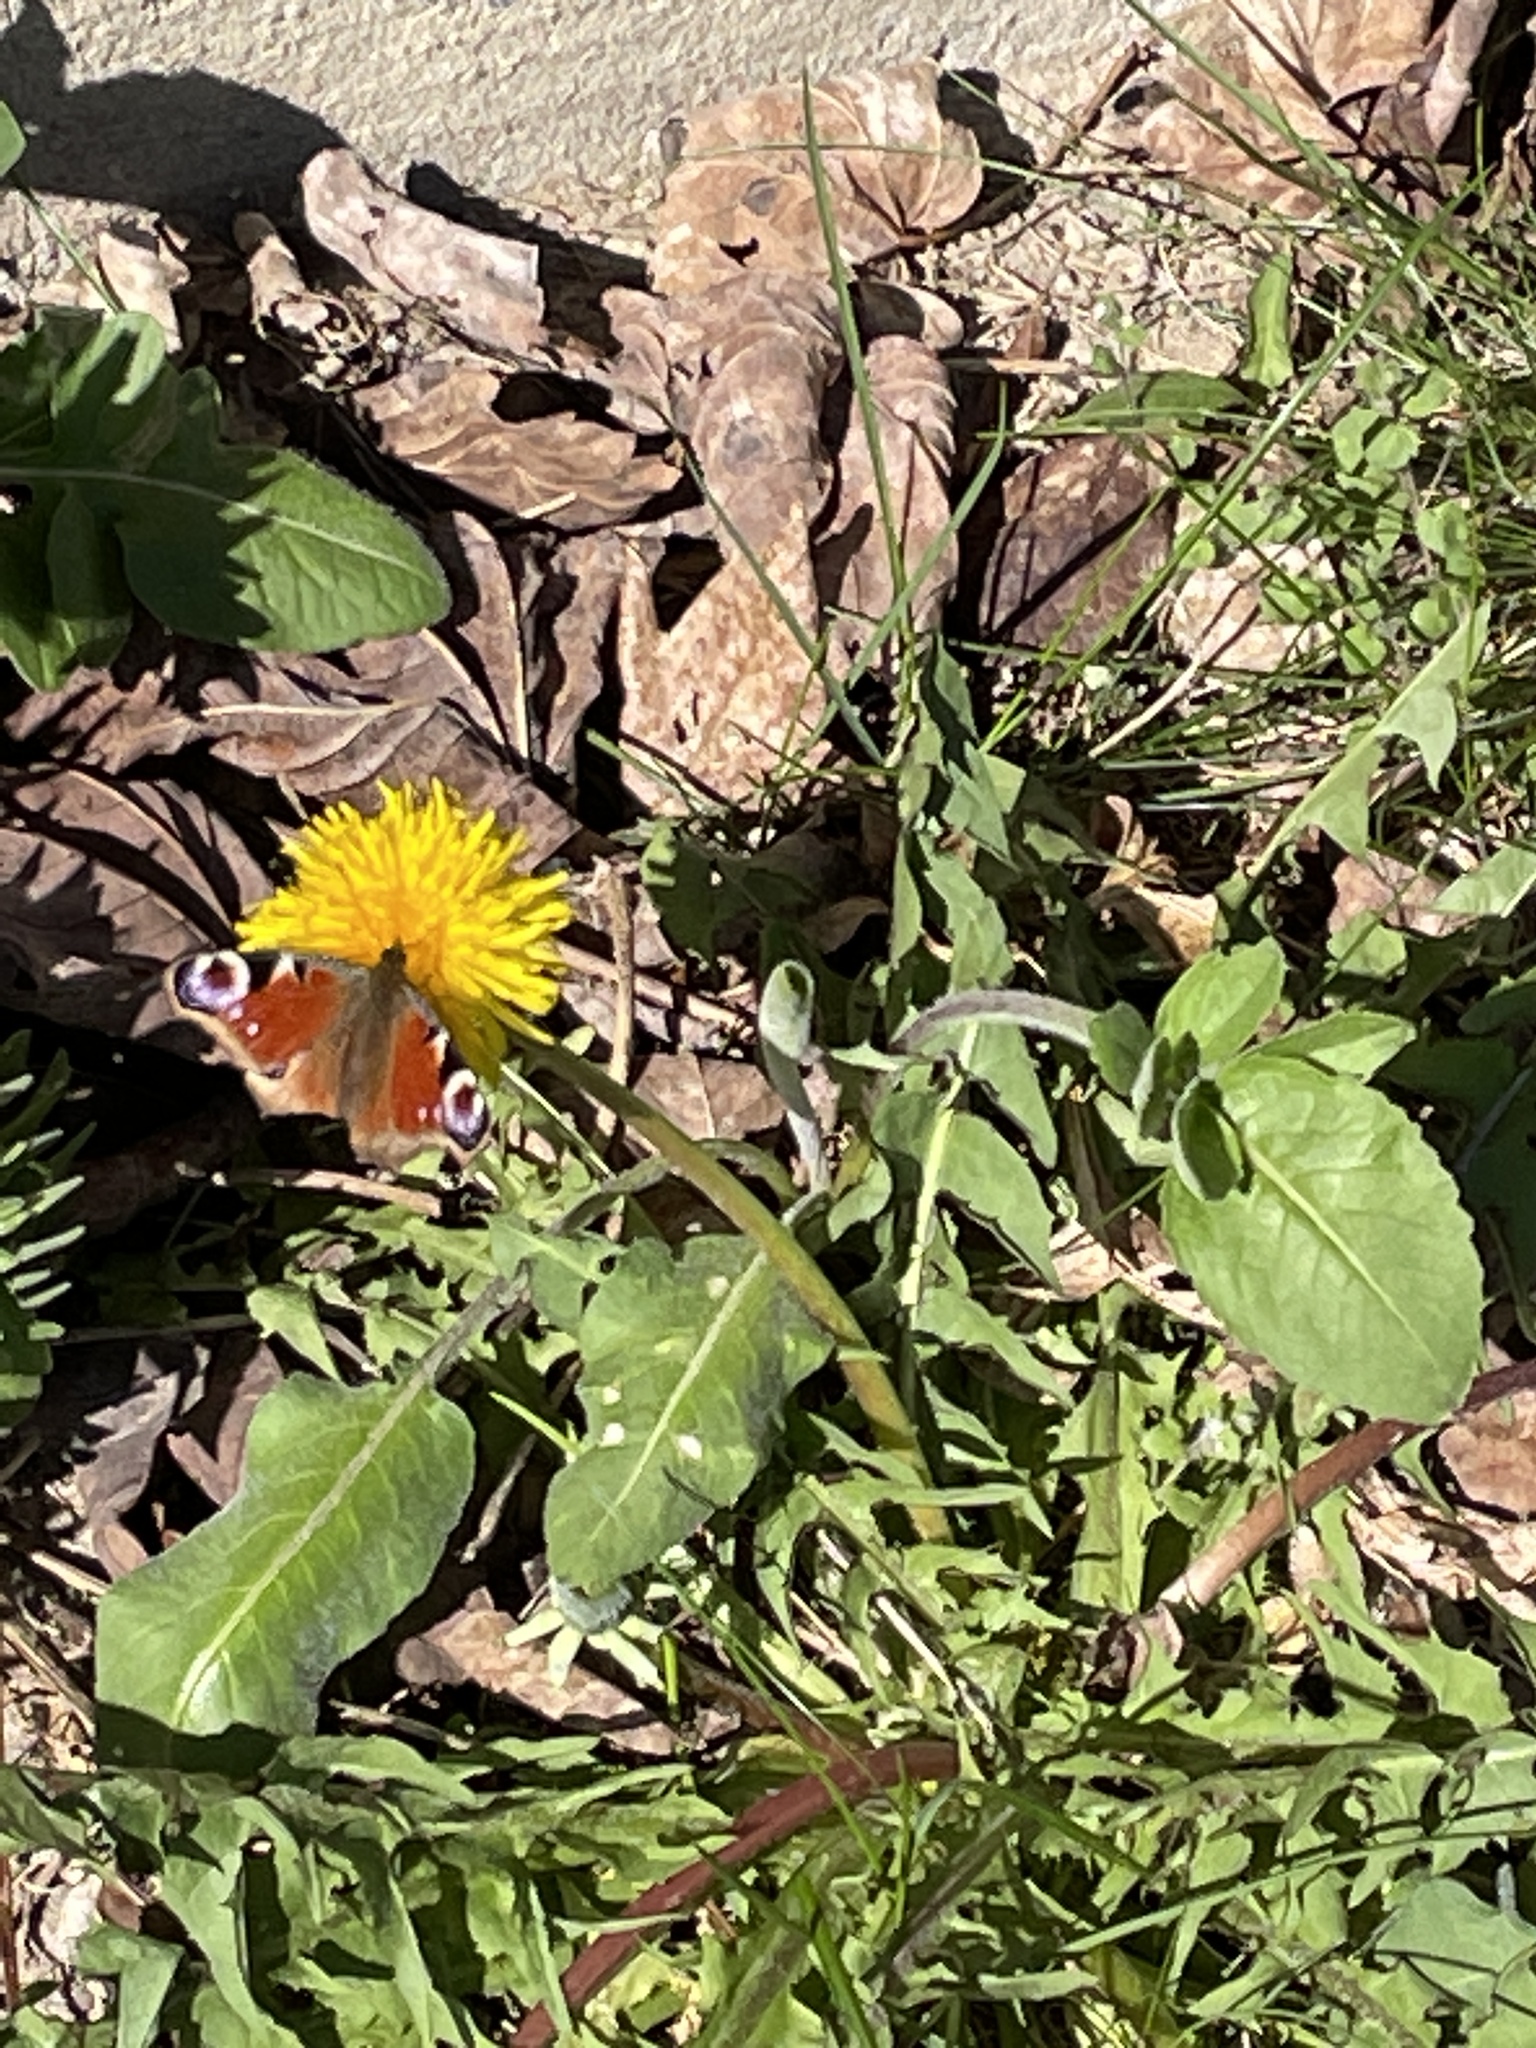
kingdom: Animalia
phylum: Arthropoda
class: Insecta
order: Lepidoptera
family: Nymphalidae
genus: Aglais
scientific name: Aglais io
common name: Peacock
